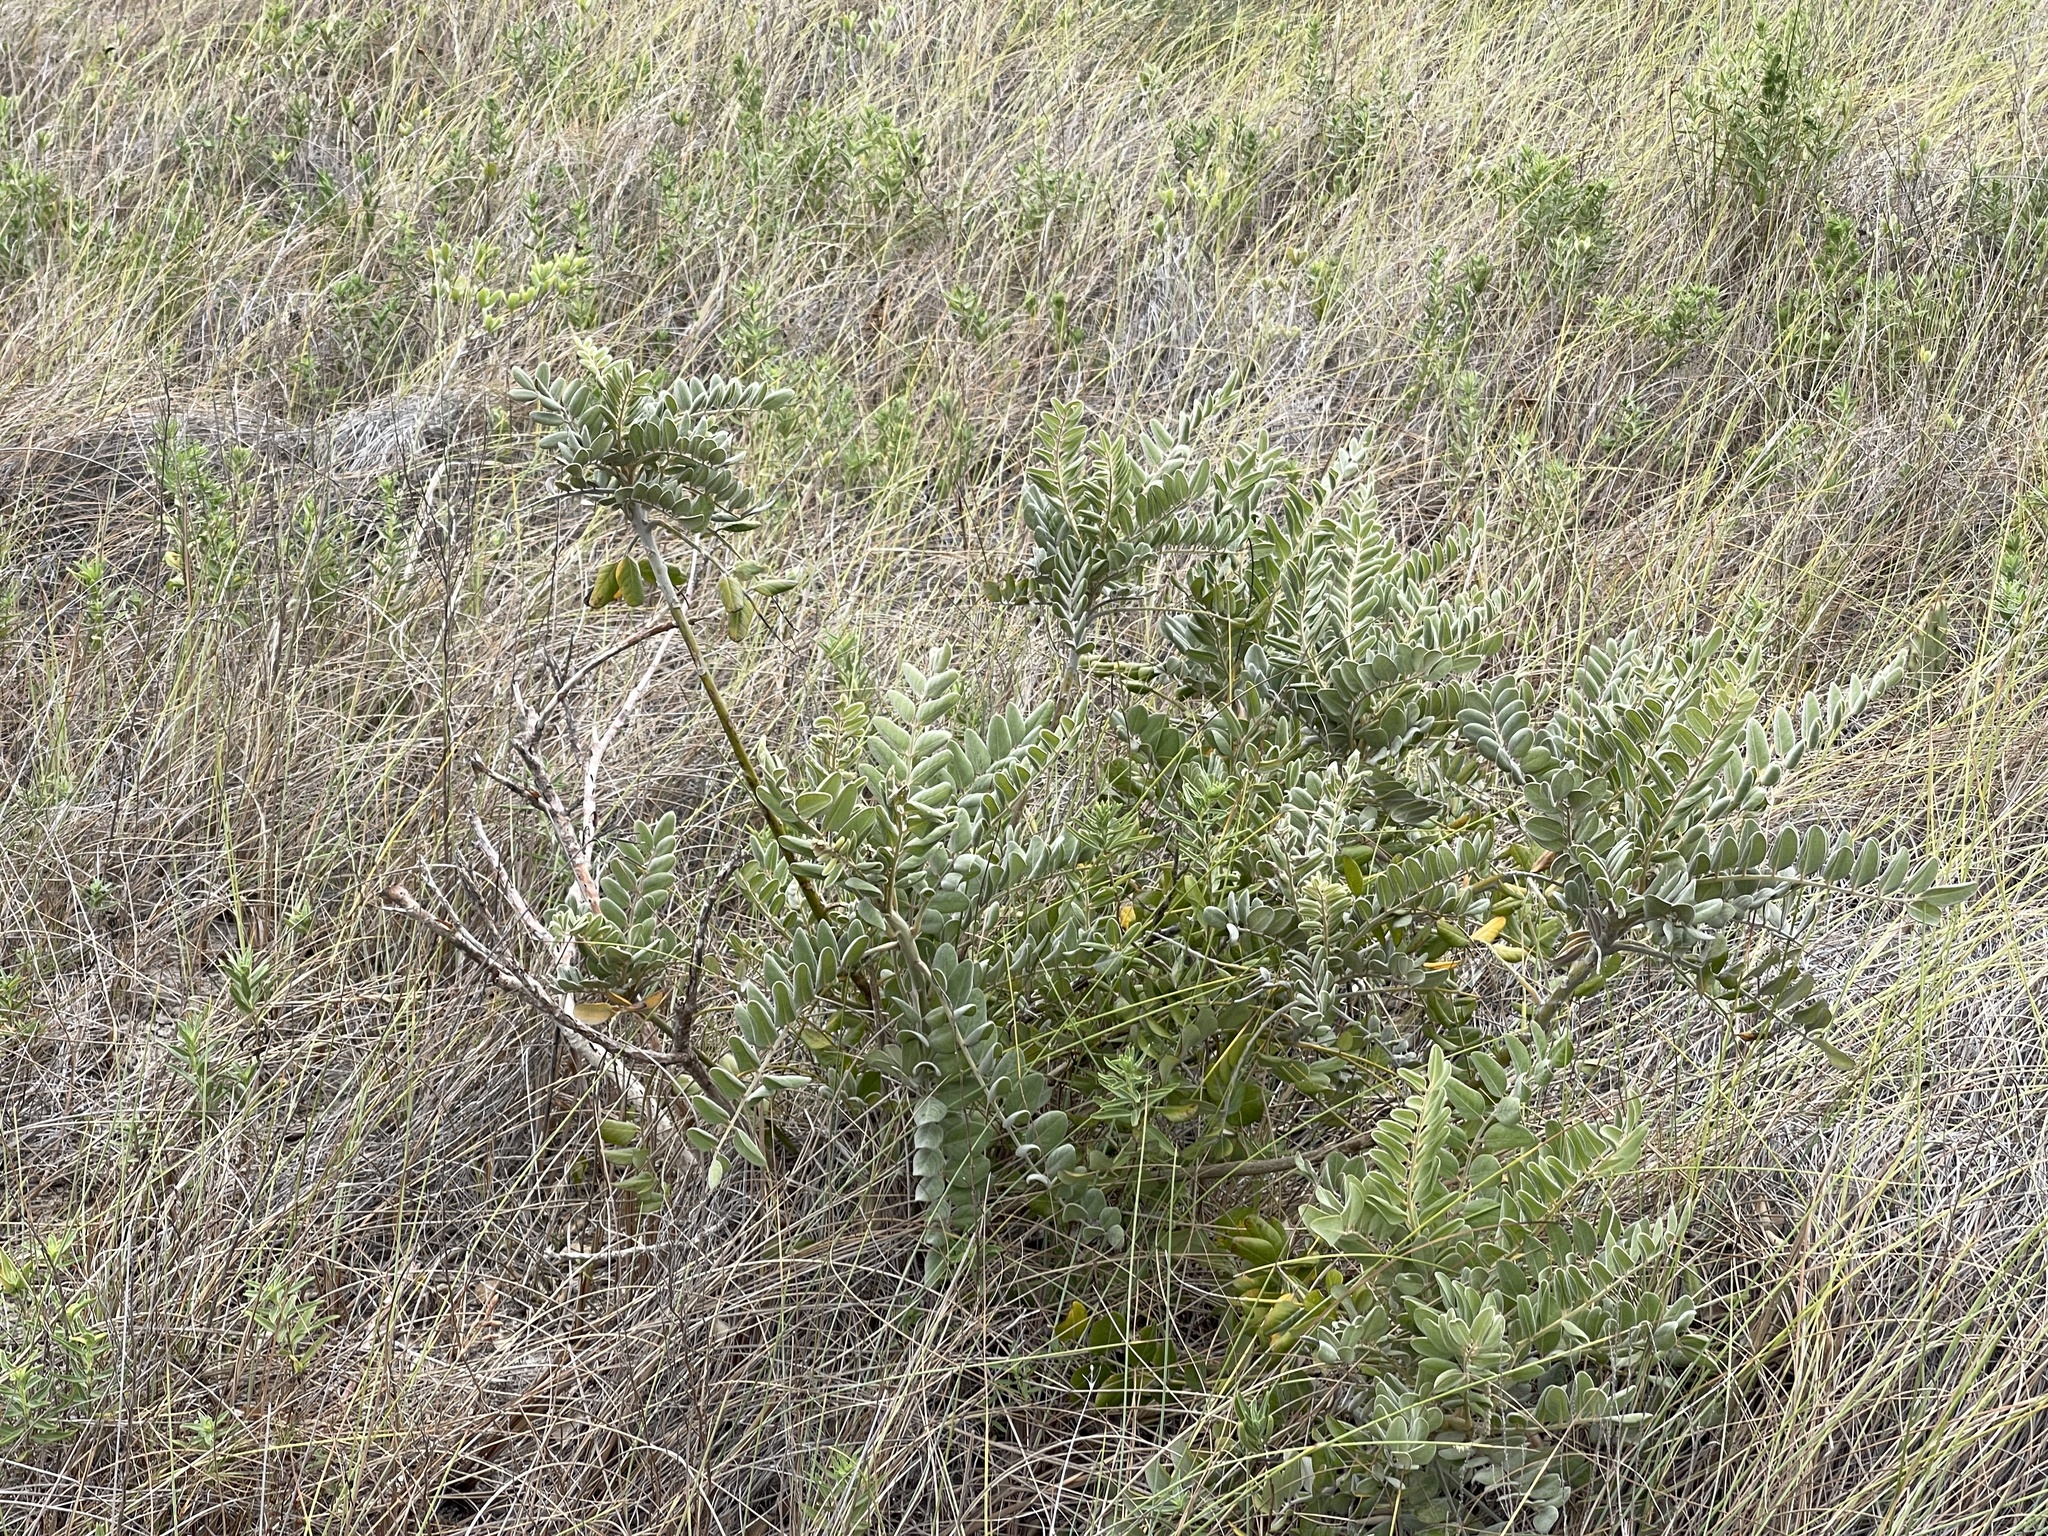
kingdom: Plantae
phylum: Tracheophyta
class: Magnoliopsida
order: Fabales
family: Fabaceae
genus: Sophora
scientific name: Sophora tomentosa
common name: Yellow necklacepod
